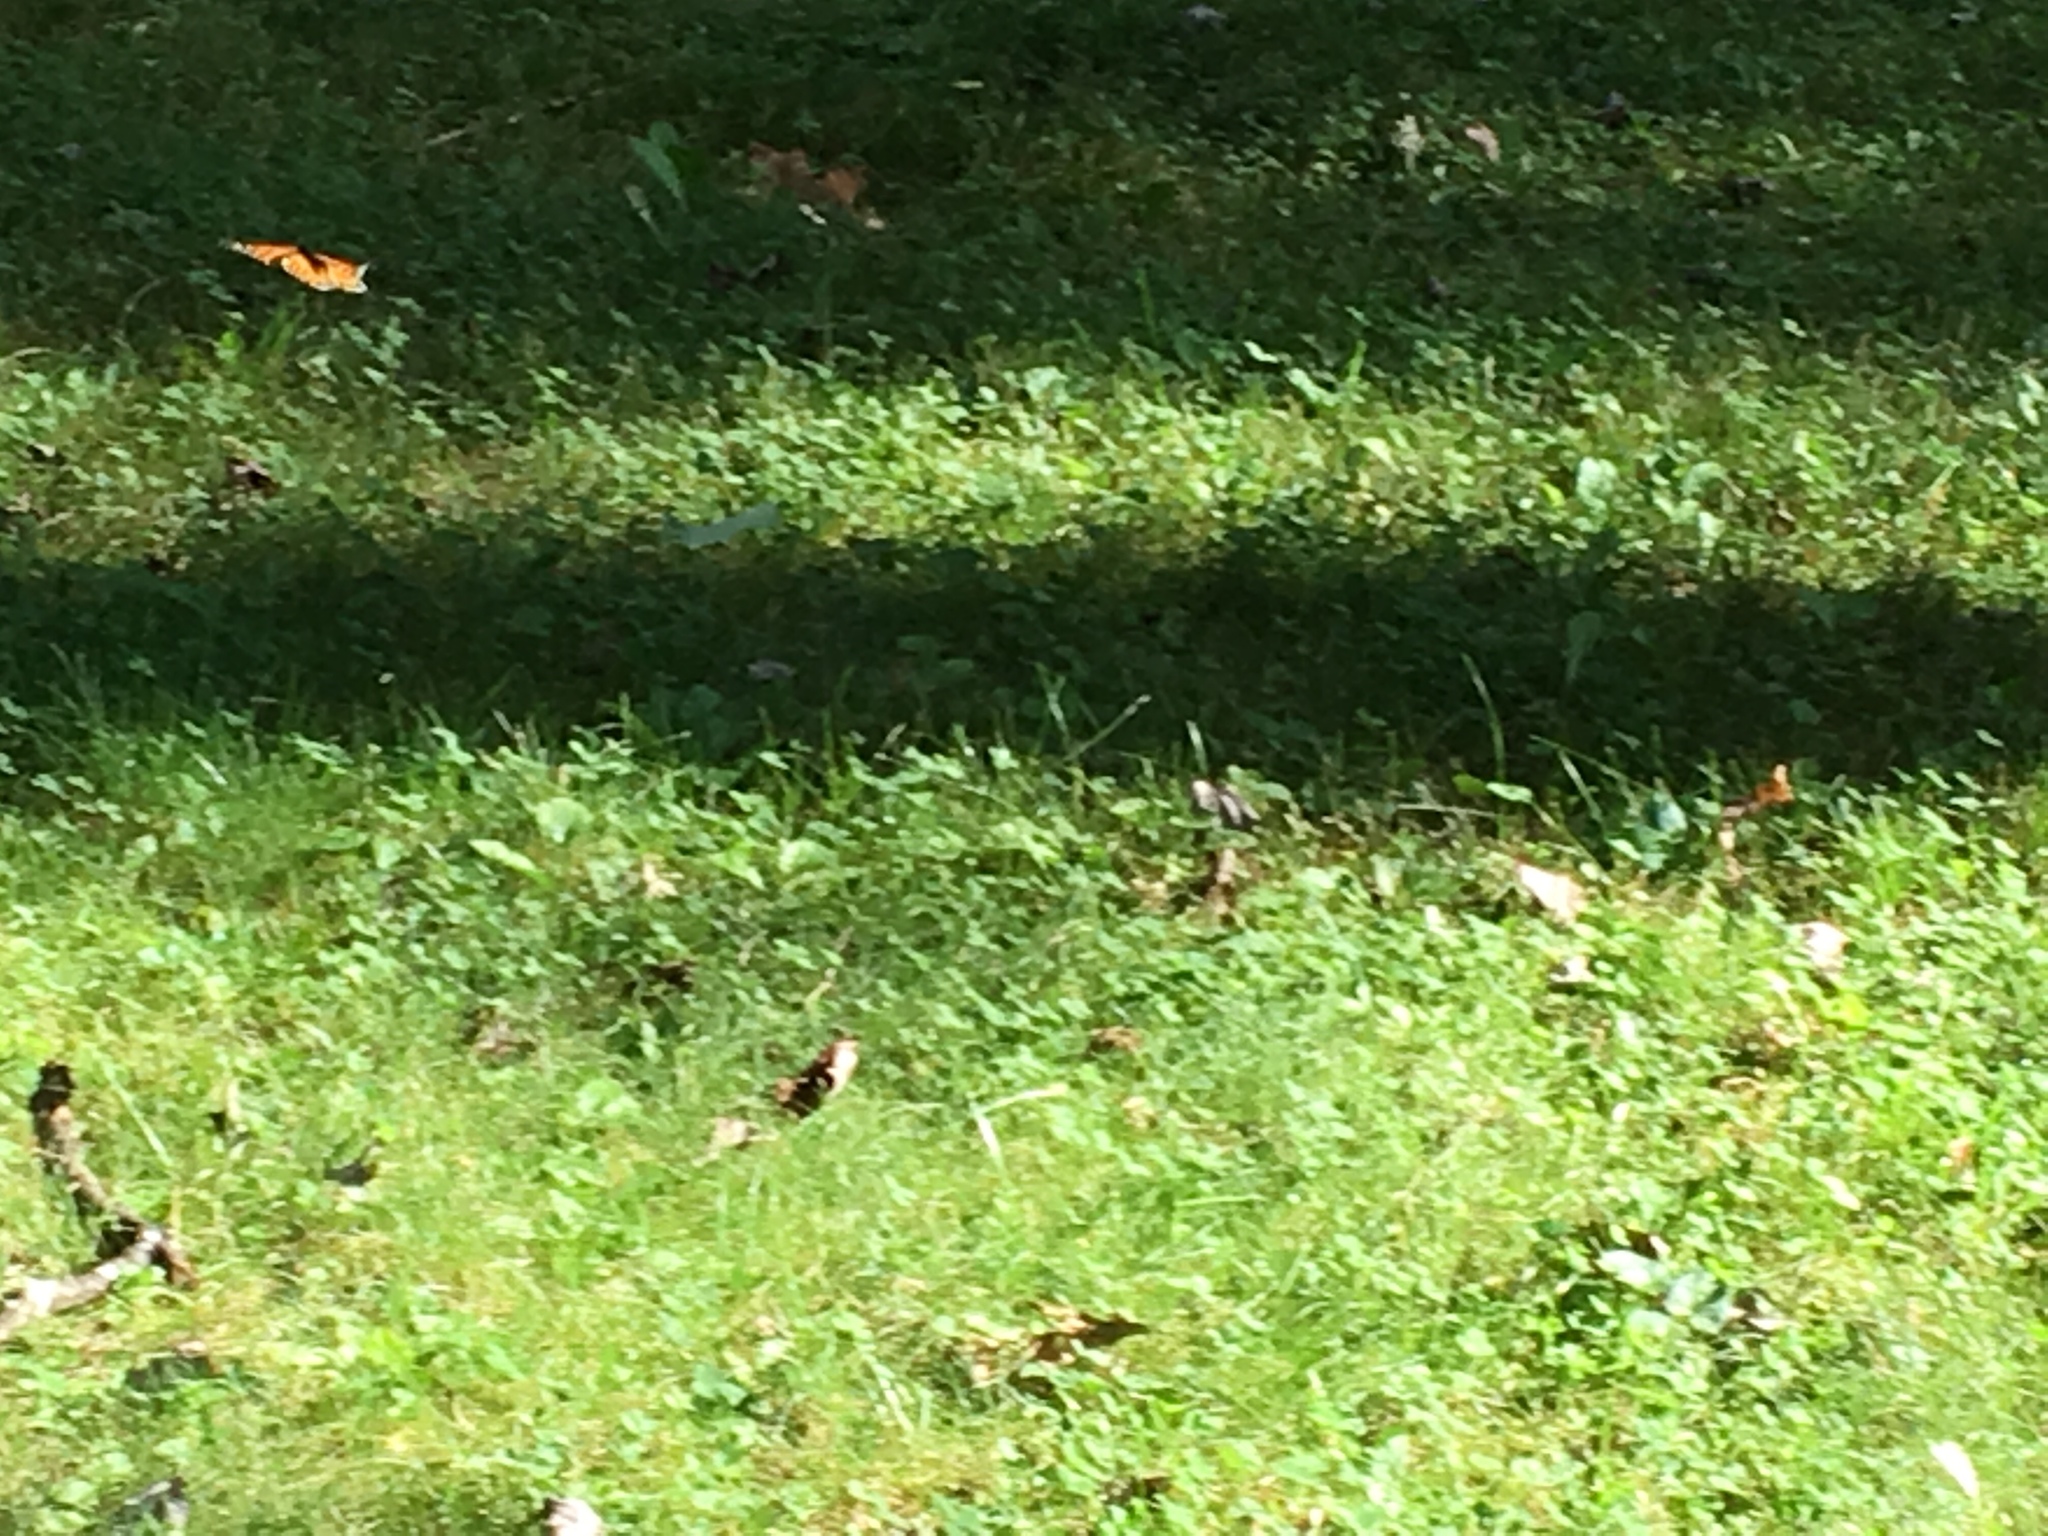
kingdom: Animalia
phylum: Arthropoda
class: Insecta
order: Lepidoptera
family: Nymphalidae
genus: Danaus
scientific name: Danaus plexippus
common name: Monarch
